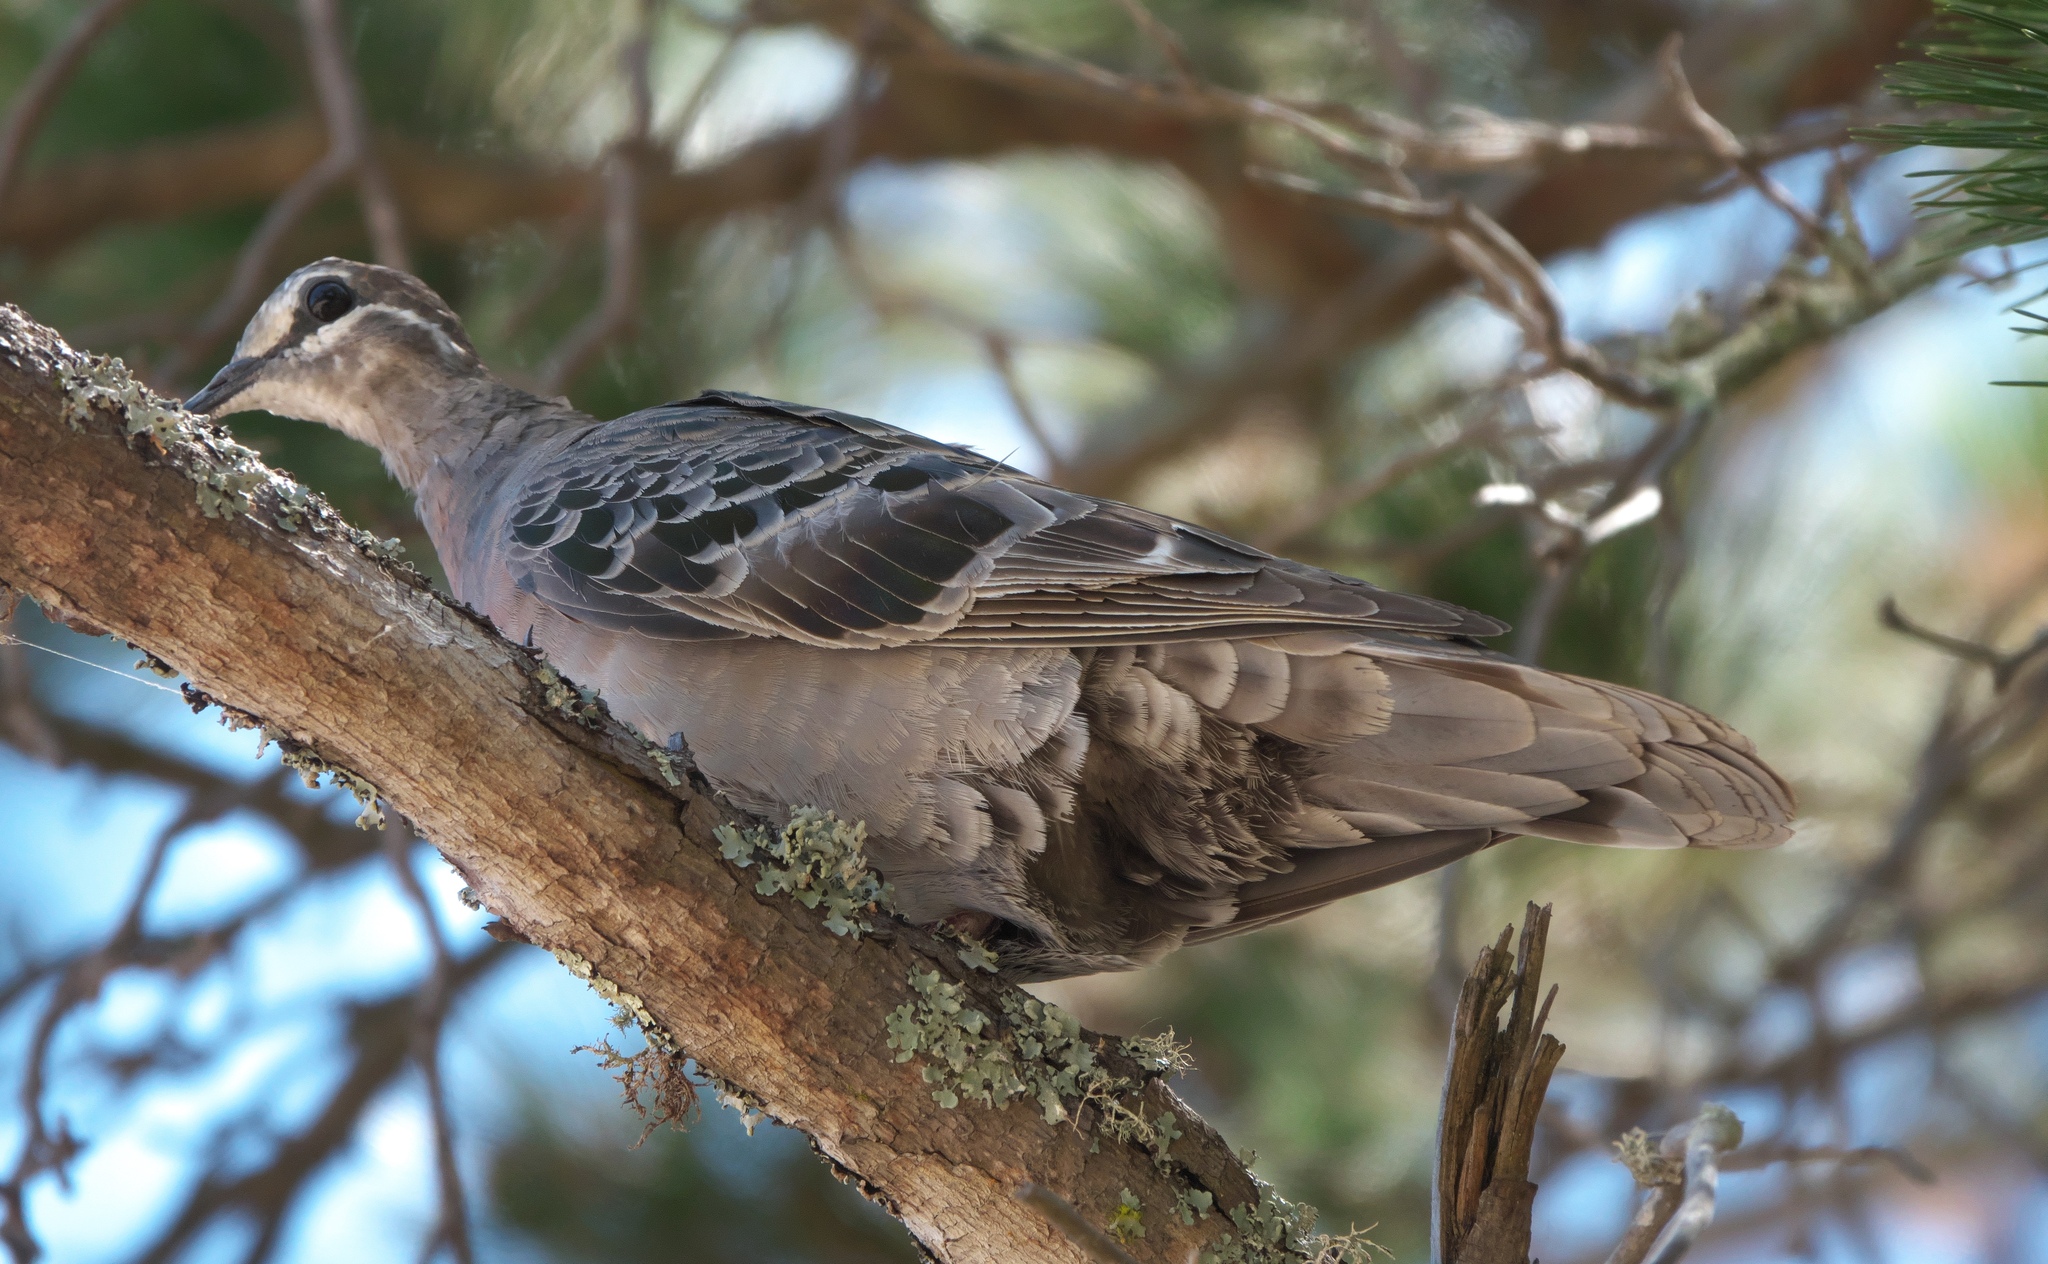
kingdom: Animalia
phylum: Chordata
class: Aves
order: Columbiformes
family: Columbidae
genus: Phaps
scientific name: Phaps chalcoptera
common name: Common bronzewing
